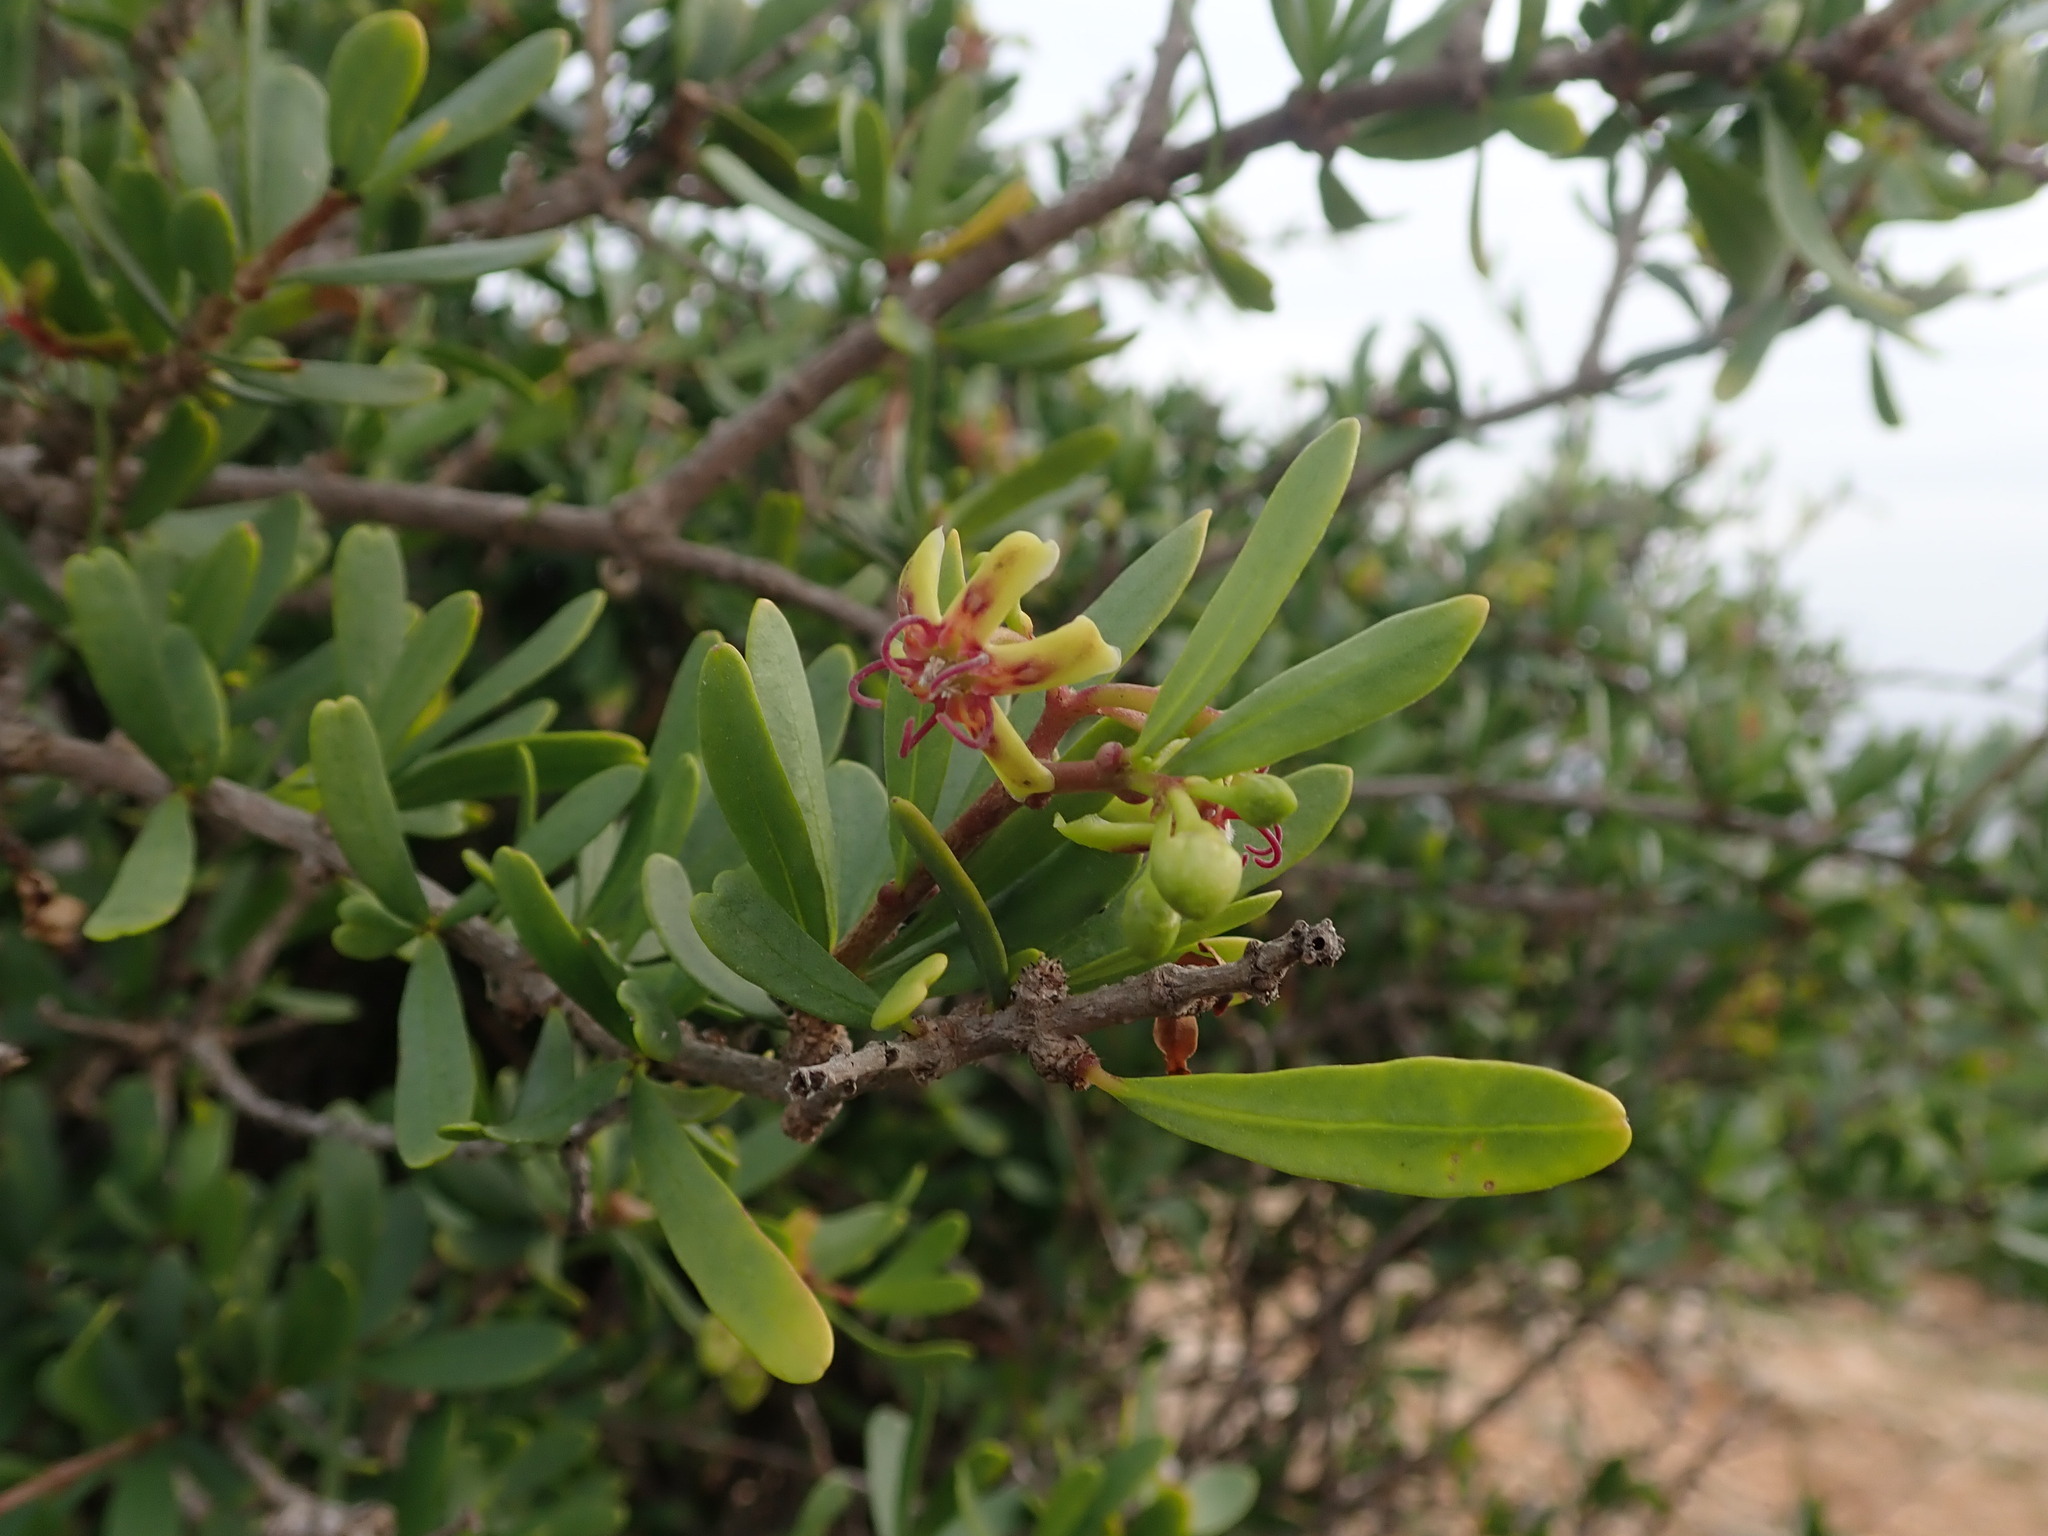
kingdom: Plantae
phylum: Tracheophyta
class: Magnoliopsida
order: Gentianales
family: Apocynaceae
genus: Periploca
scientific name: Periploca laevigata
